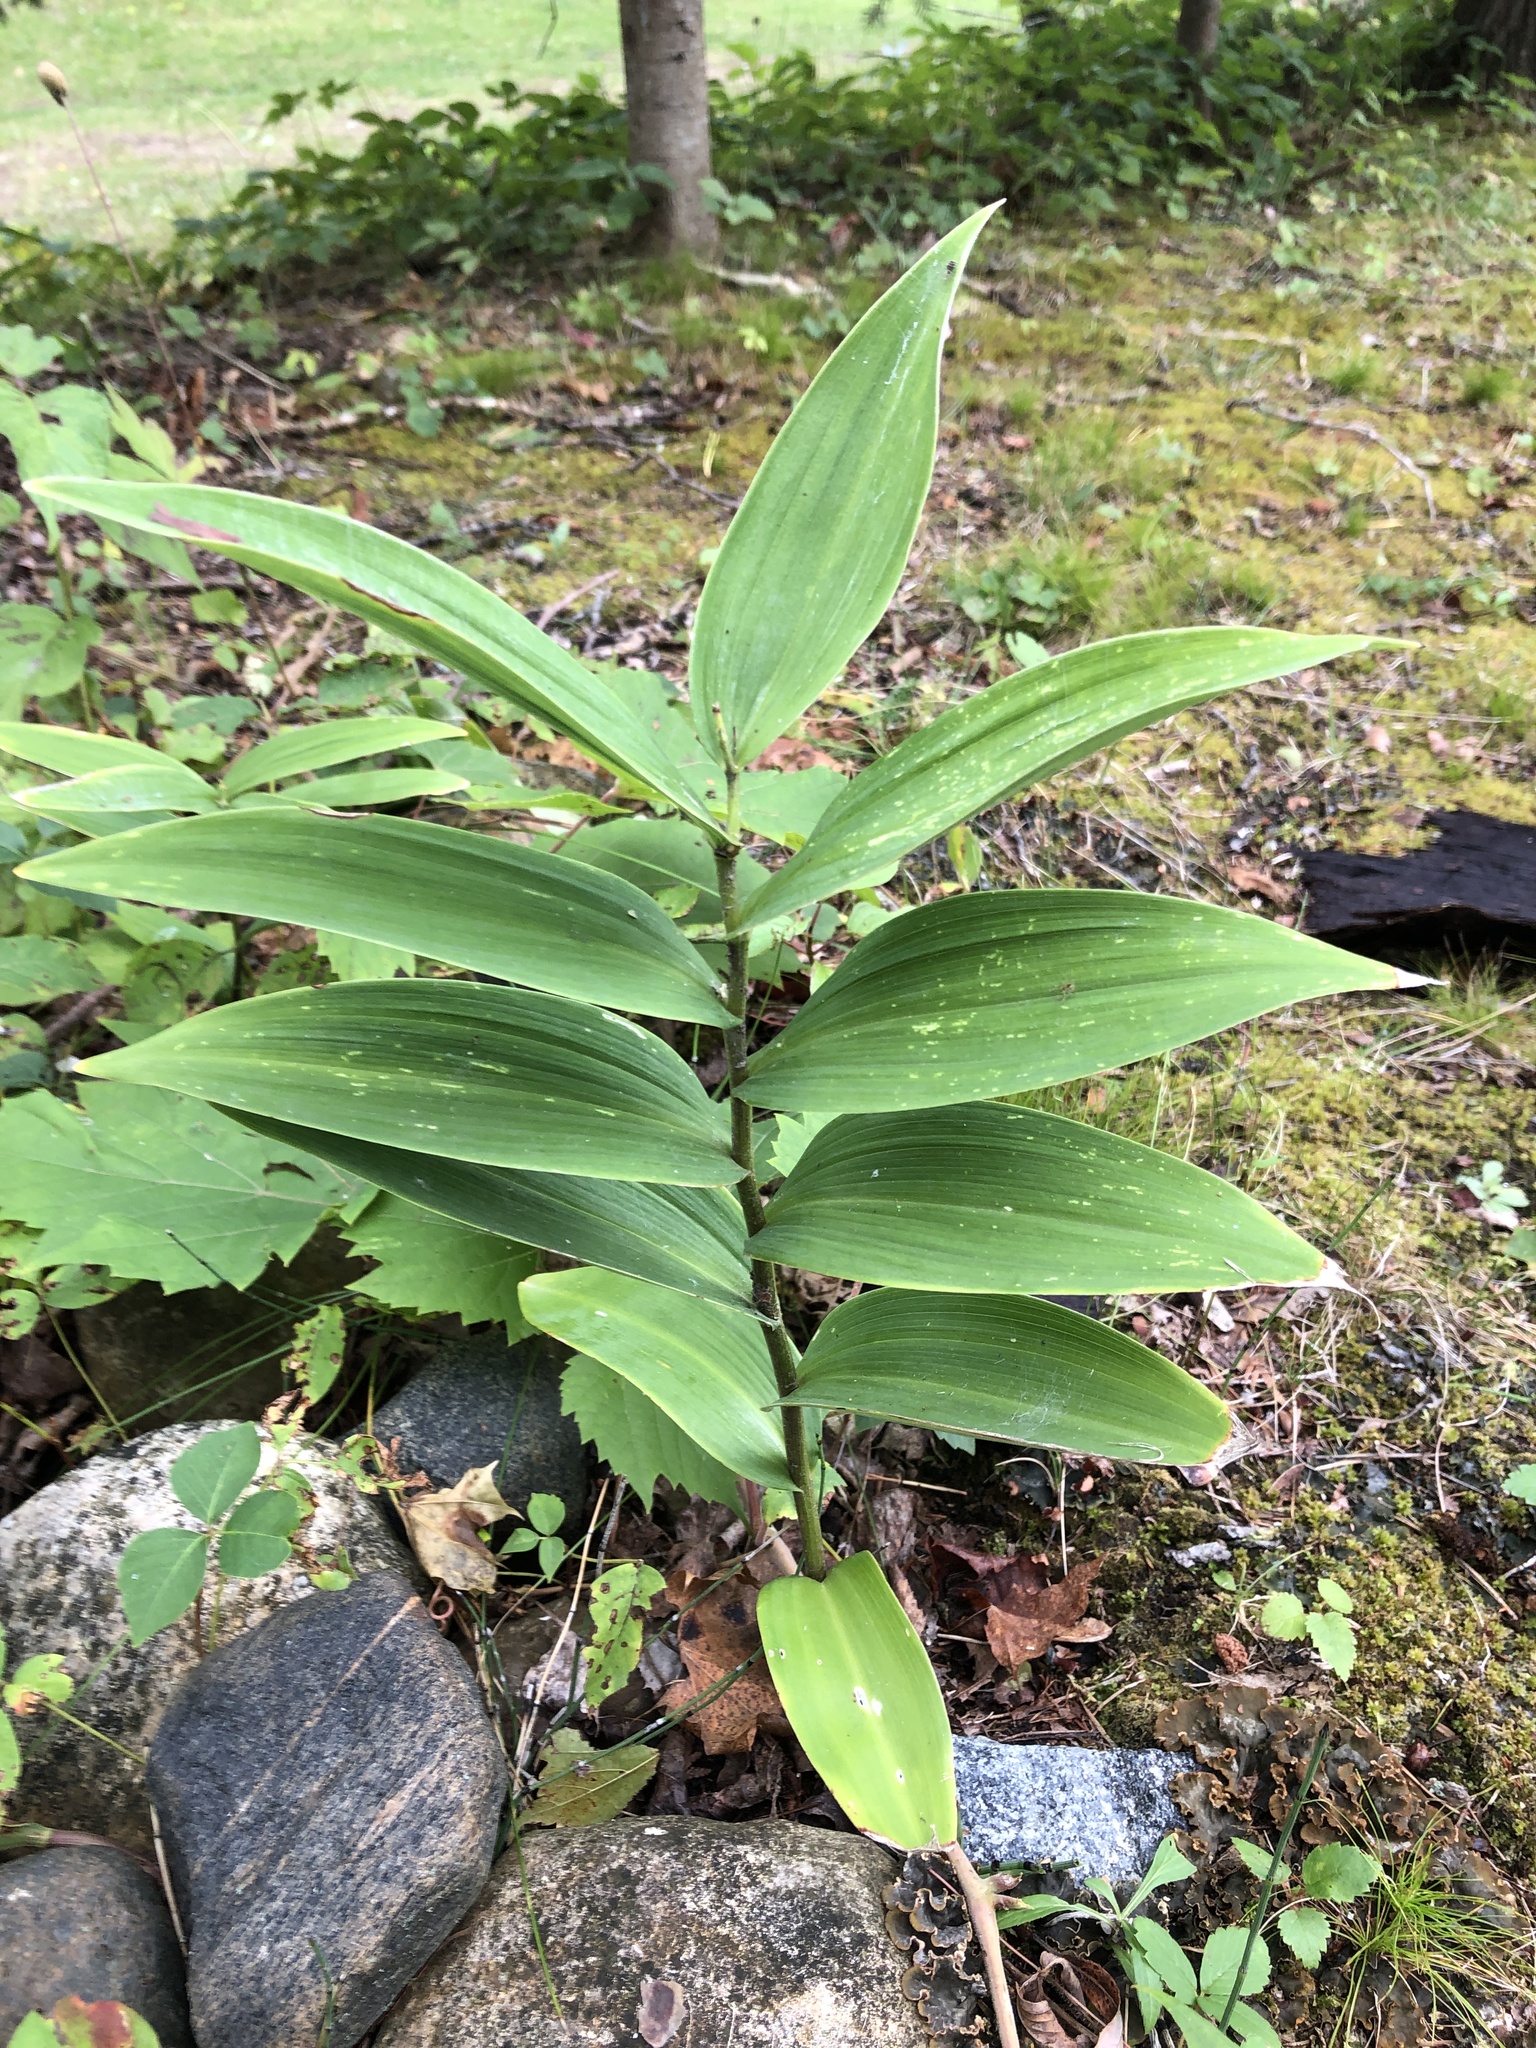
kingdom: Plantae
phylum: Tracheophyta
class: Liliopsida
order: Asparagales
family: Asparagaceae
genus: Maianthemum
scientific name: Maianthemum stellatum
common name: Little false solomon's seal
